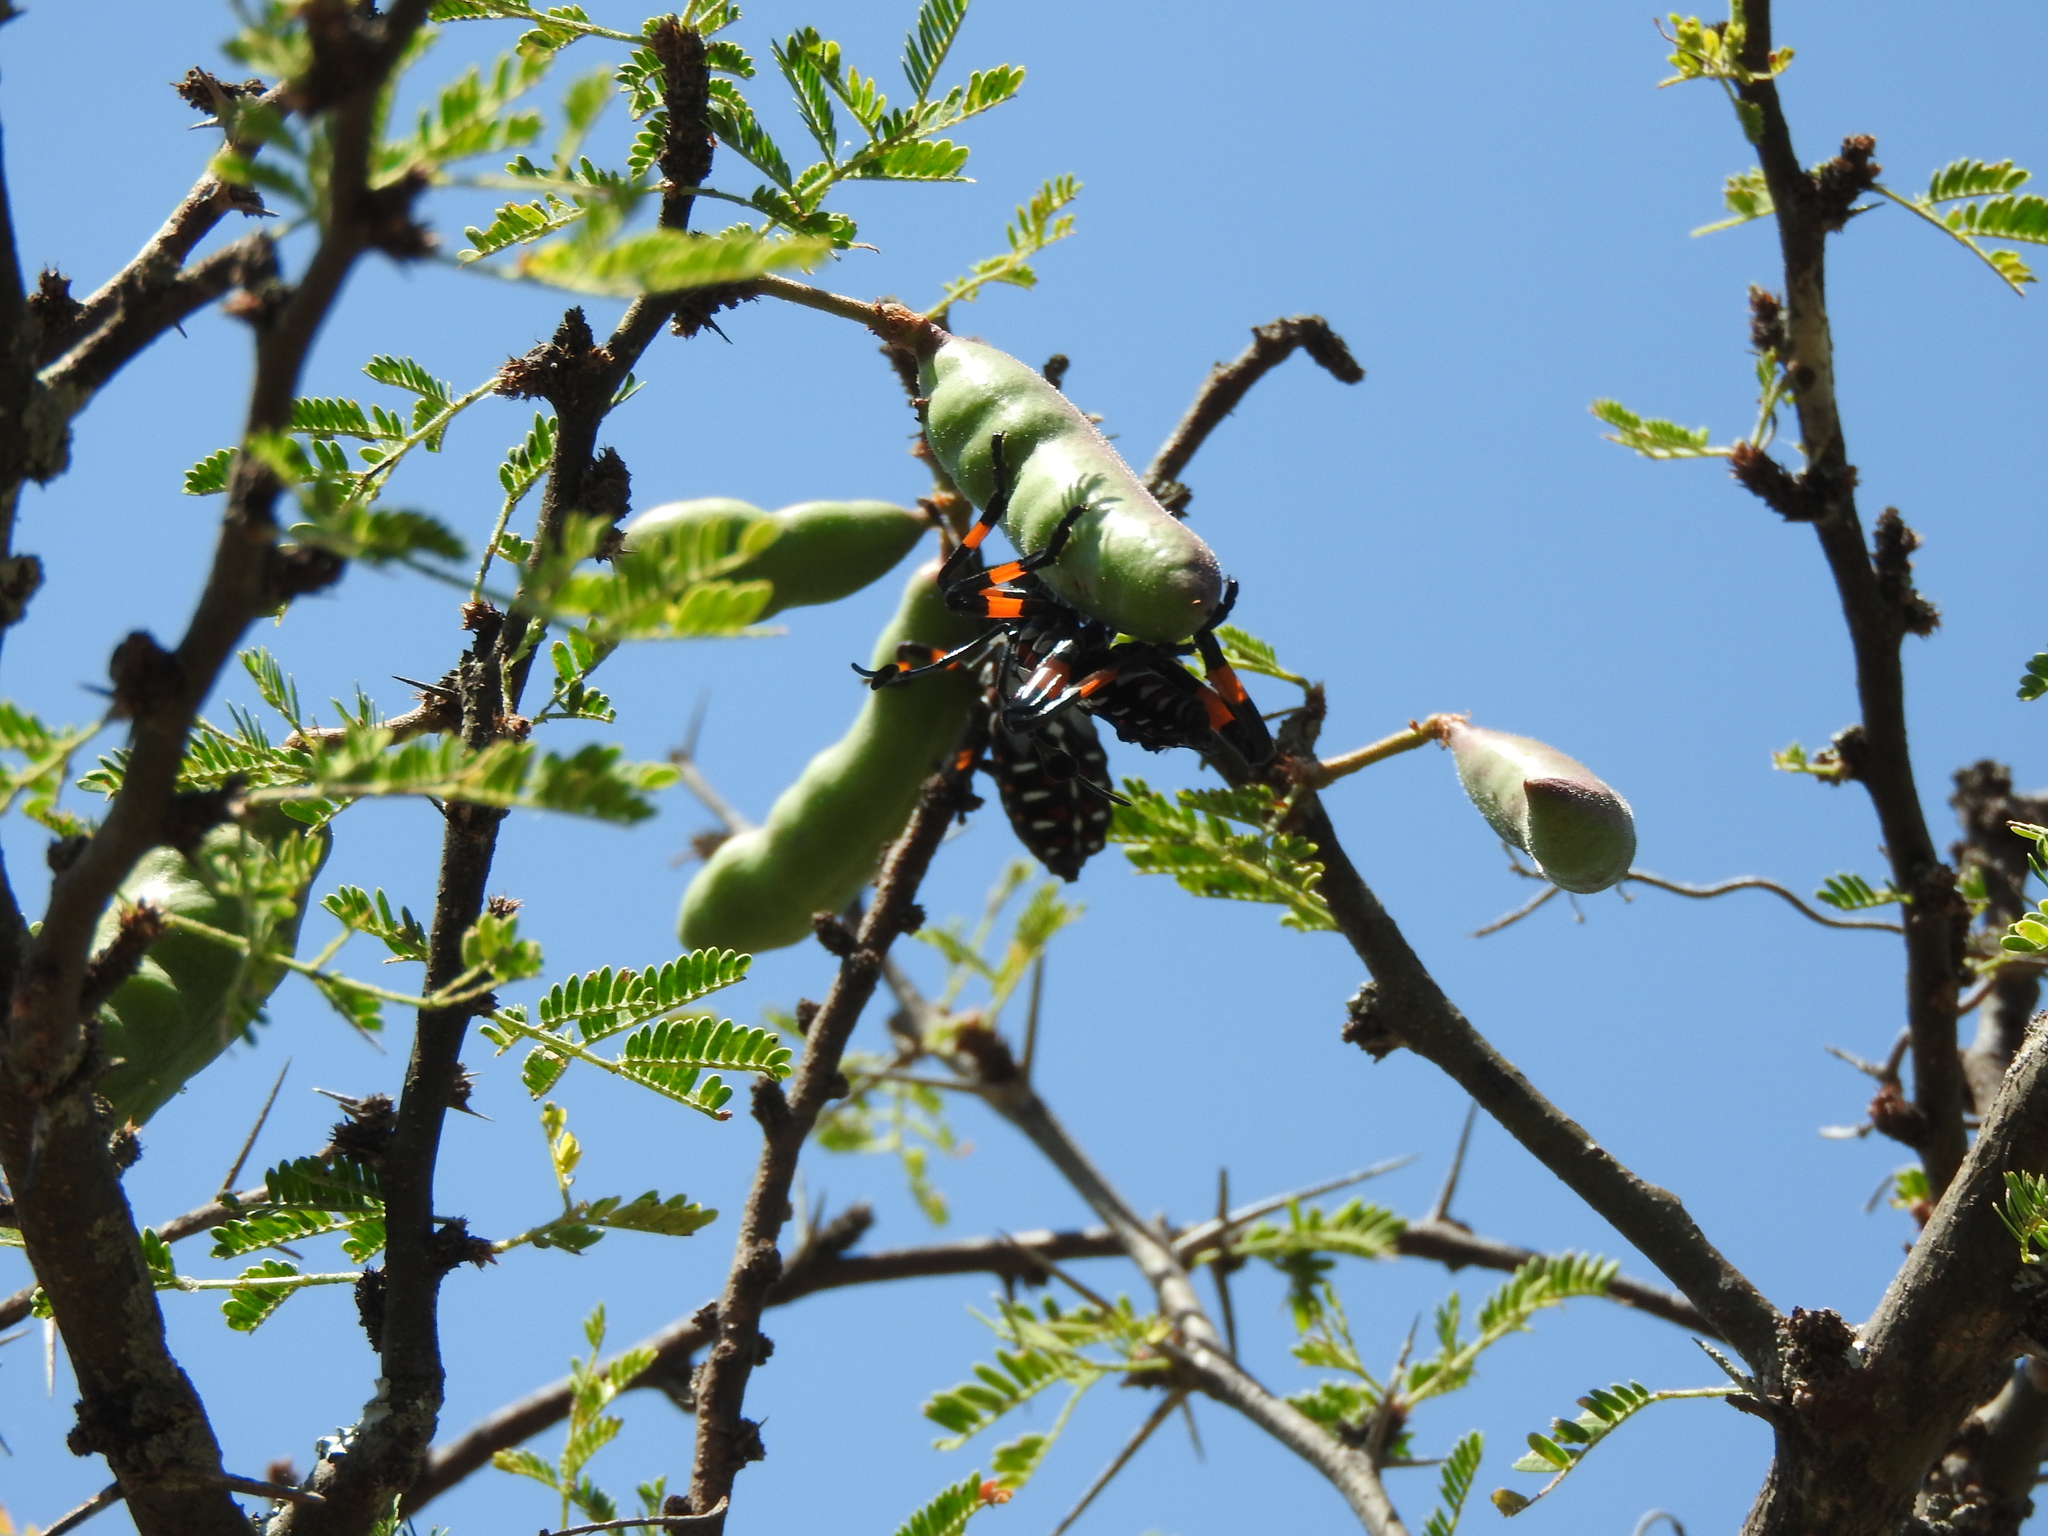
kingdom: Animalia
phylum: Arthropoda
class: Insecta
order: Hemiptera
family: Coreidae
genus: Thasus
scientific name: Thasus
